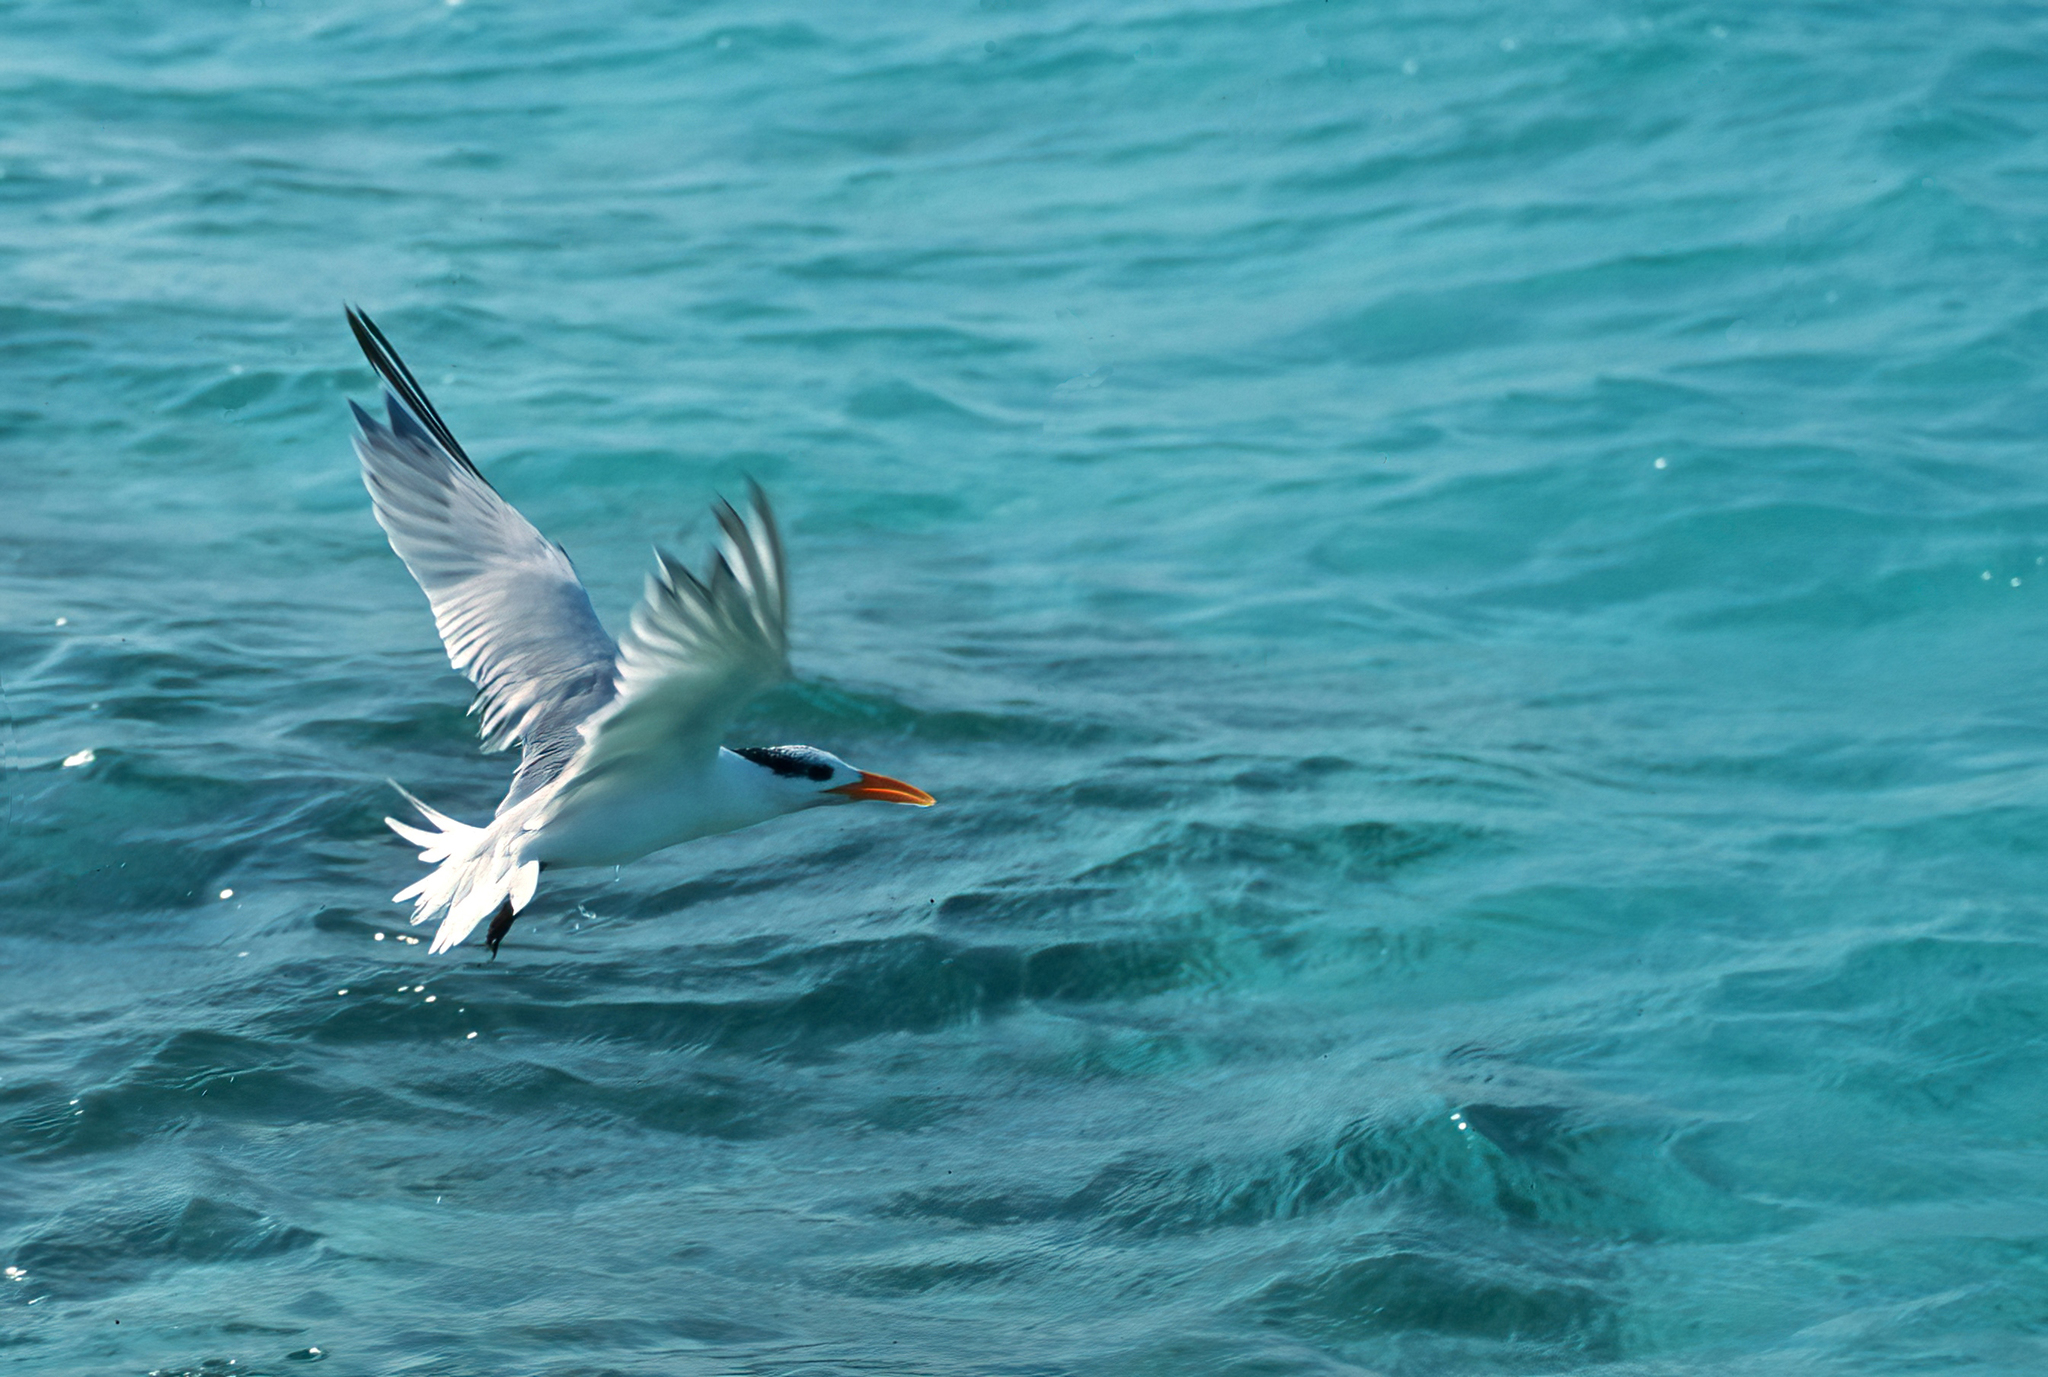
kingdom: Animalia
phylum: Chordata
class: Aves
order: Charadriiformes
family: Laridae
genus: Thalasseus
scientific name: Thalasseus maximus
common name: Royal tern
